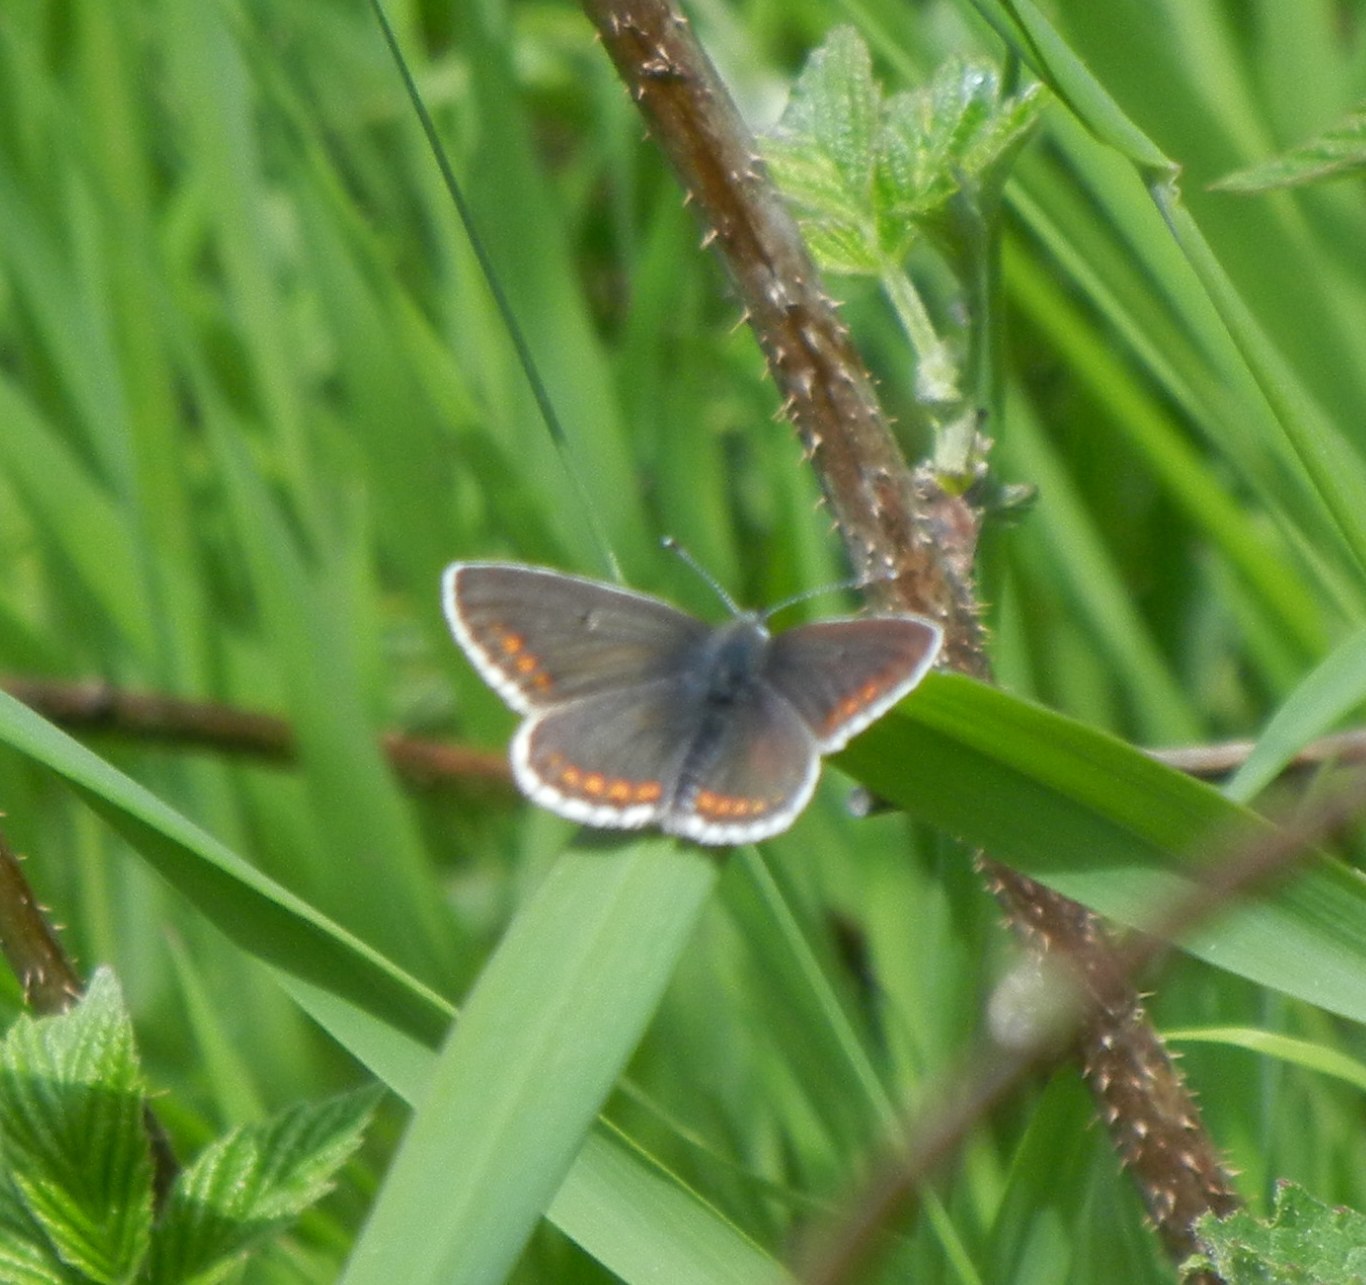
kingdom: Animalia
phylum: Arthropoda
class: Insecta
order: Lepidoptera
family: Lycaenidae
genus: Aricia
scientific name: Aricia agestis
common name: Brown argus
